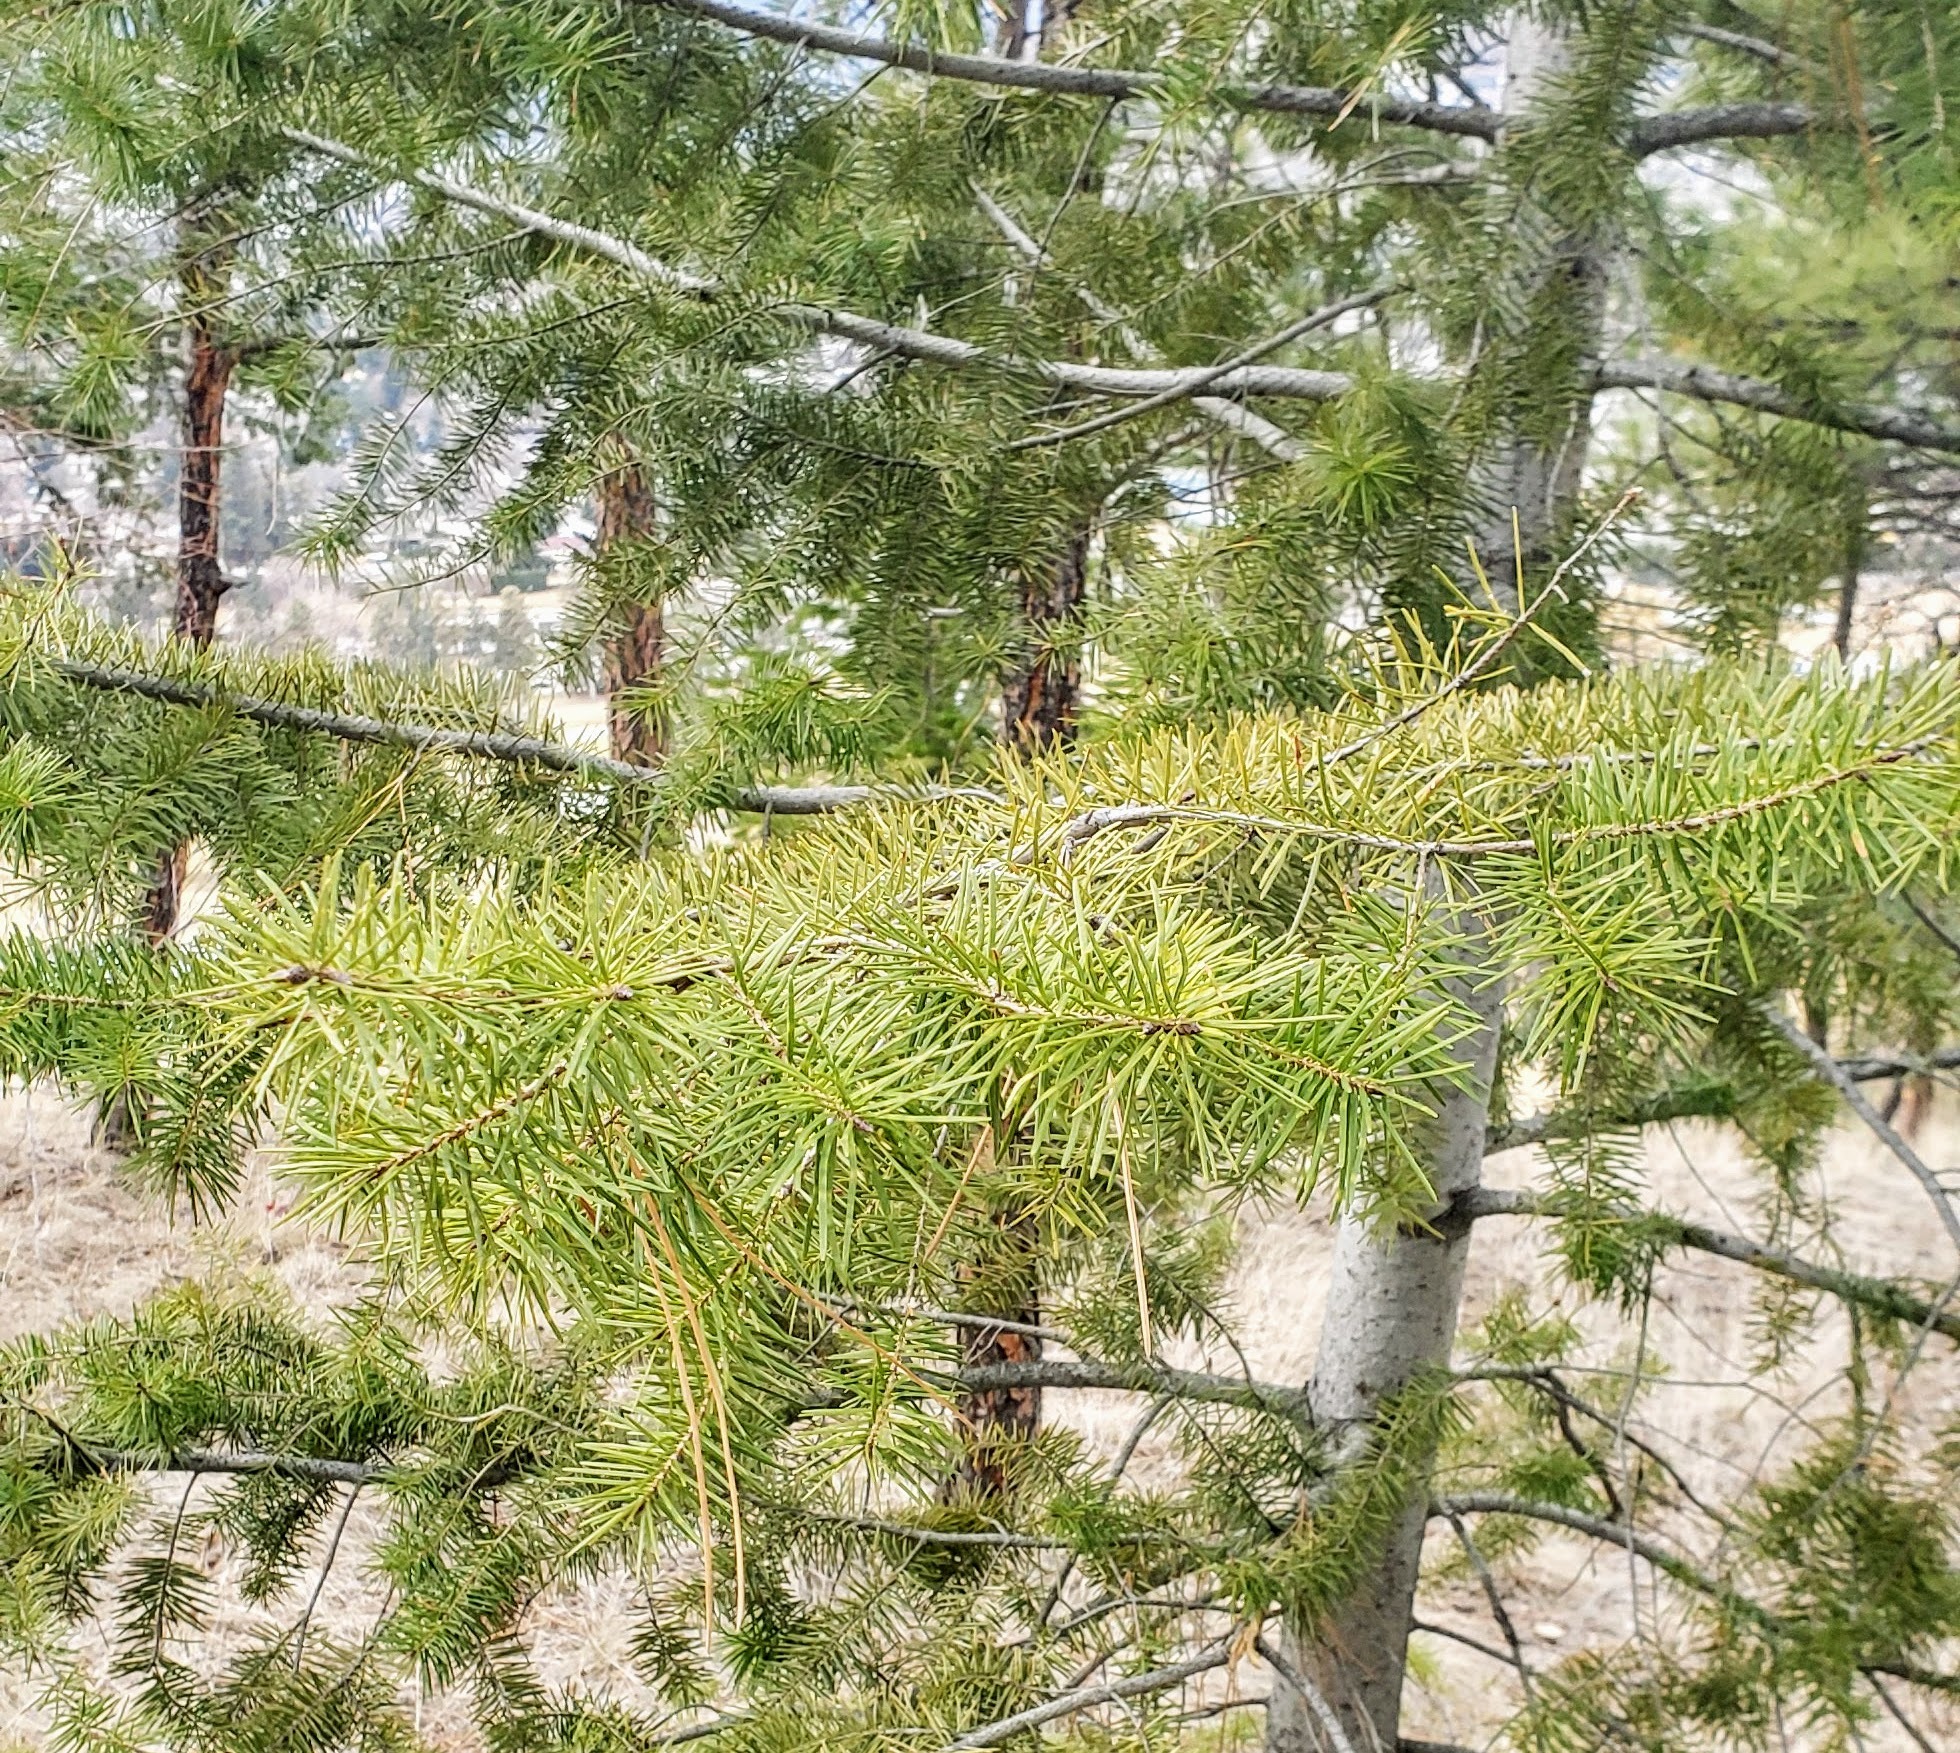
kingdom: Plantae
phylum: Tracheophyta
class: Pinopsida
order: Pinales
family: Pinaceae
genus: Pseudotsuga
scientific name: Pseudotsuga menziesii
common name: Douglas fir
